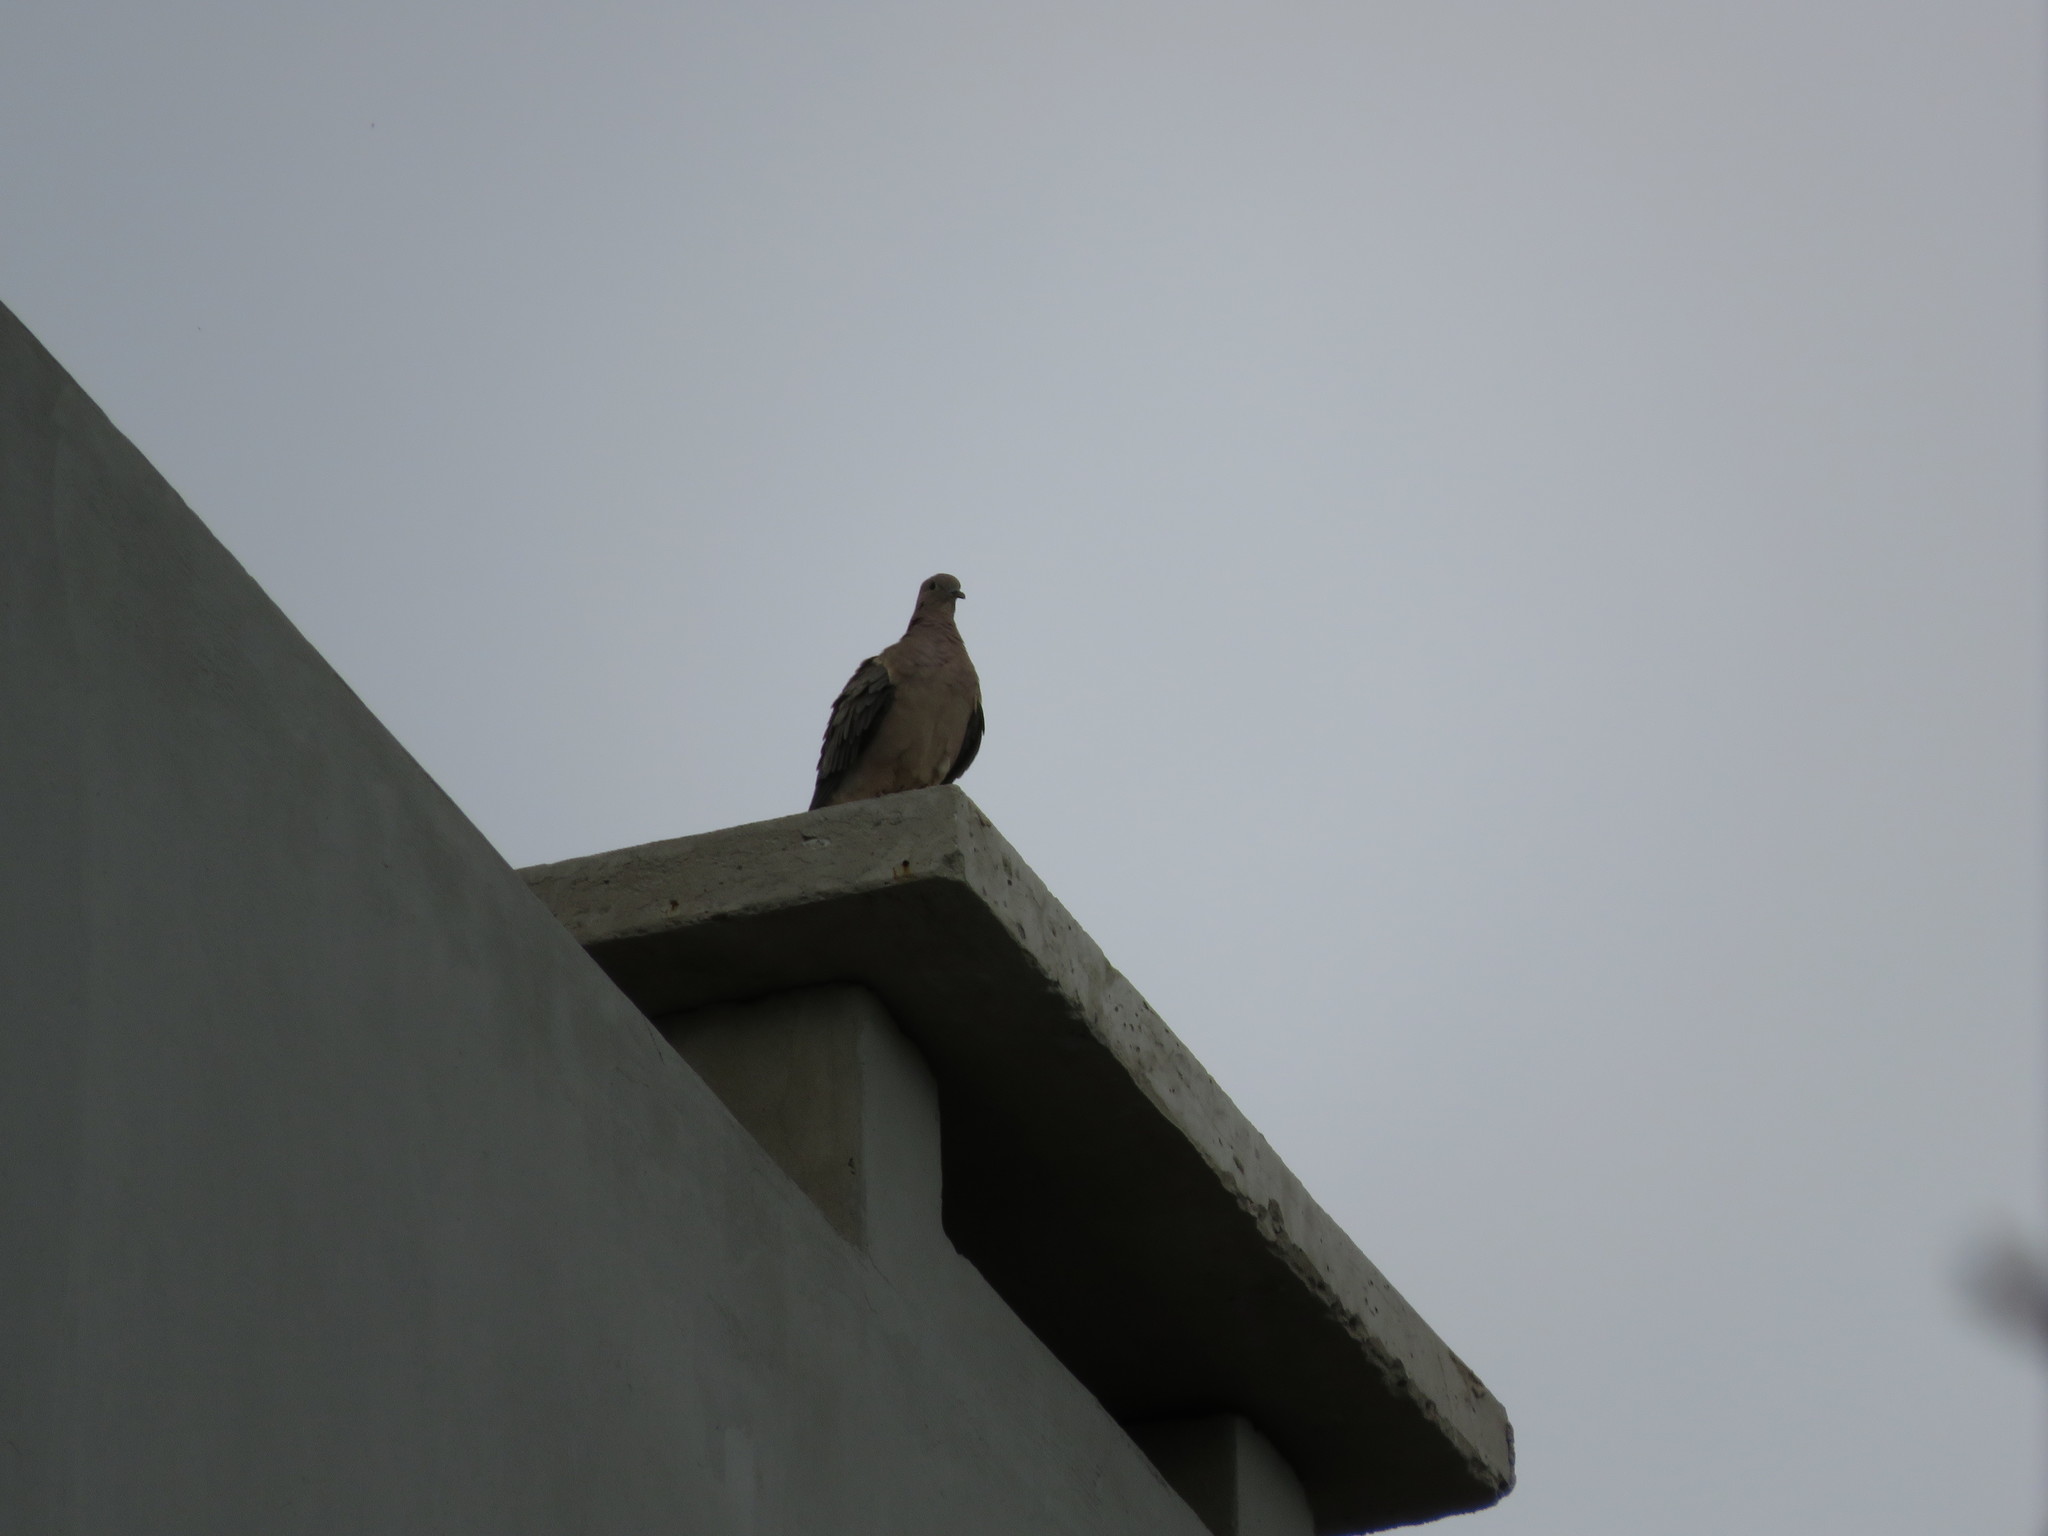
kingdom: Animalia
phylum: Chordata
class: Aves
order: Columbiformes
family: Columbidae
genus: Zenaida
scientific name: Zenaida auriculata
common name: Eared dove
